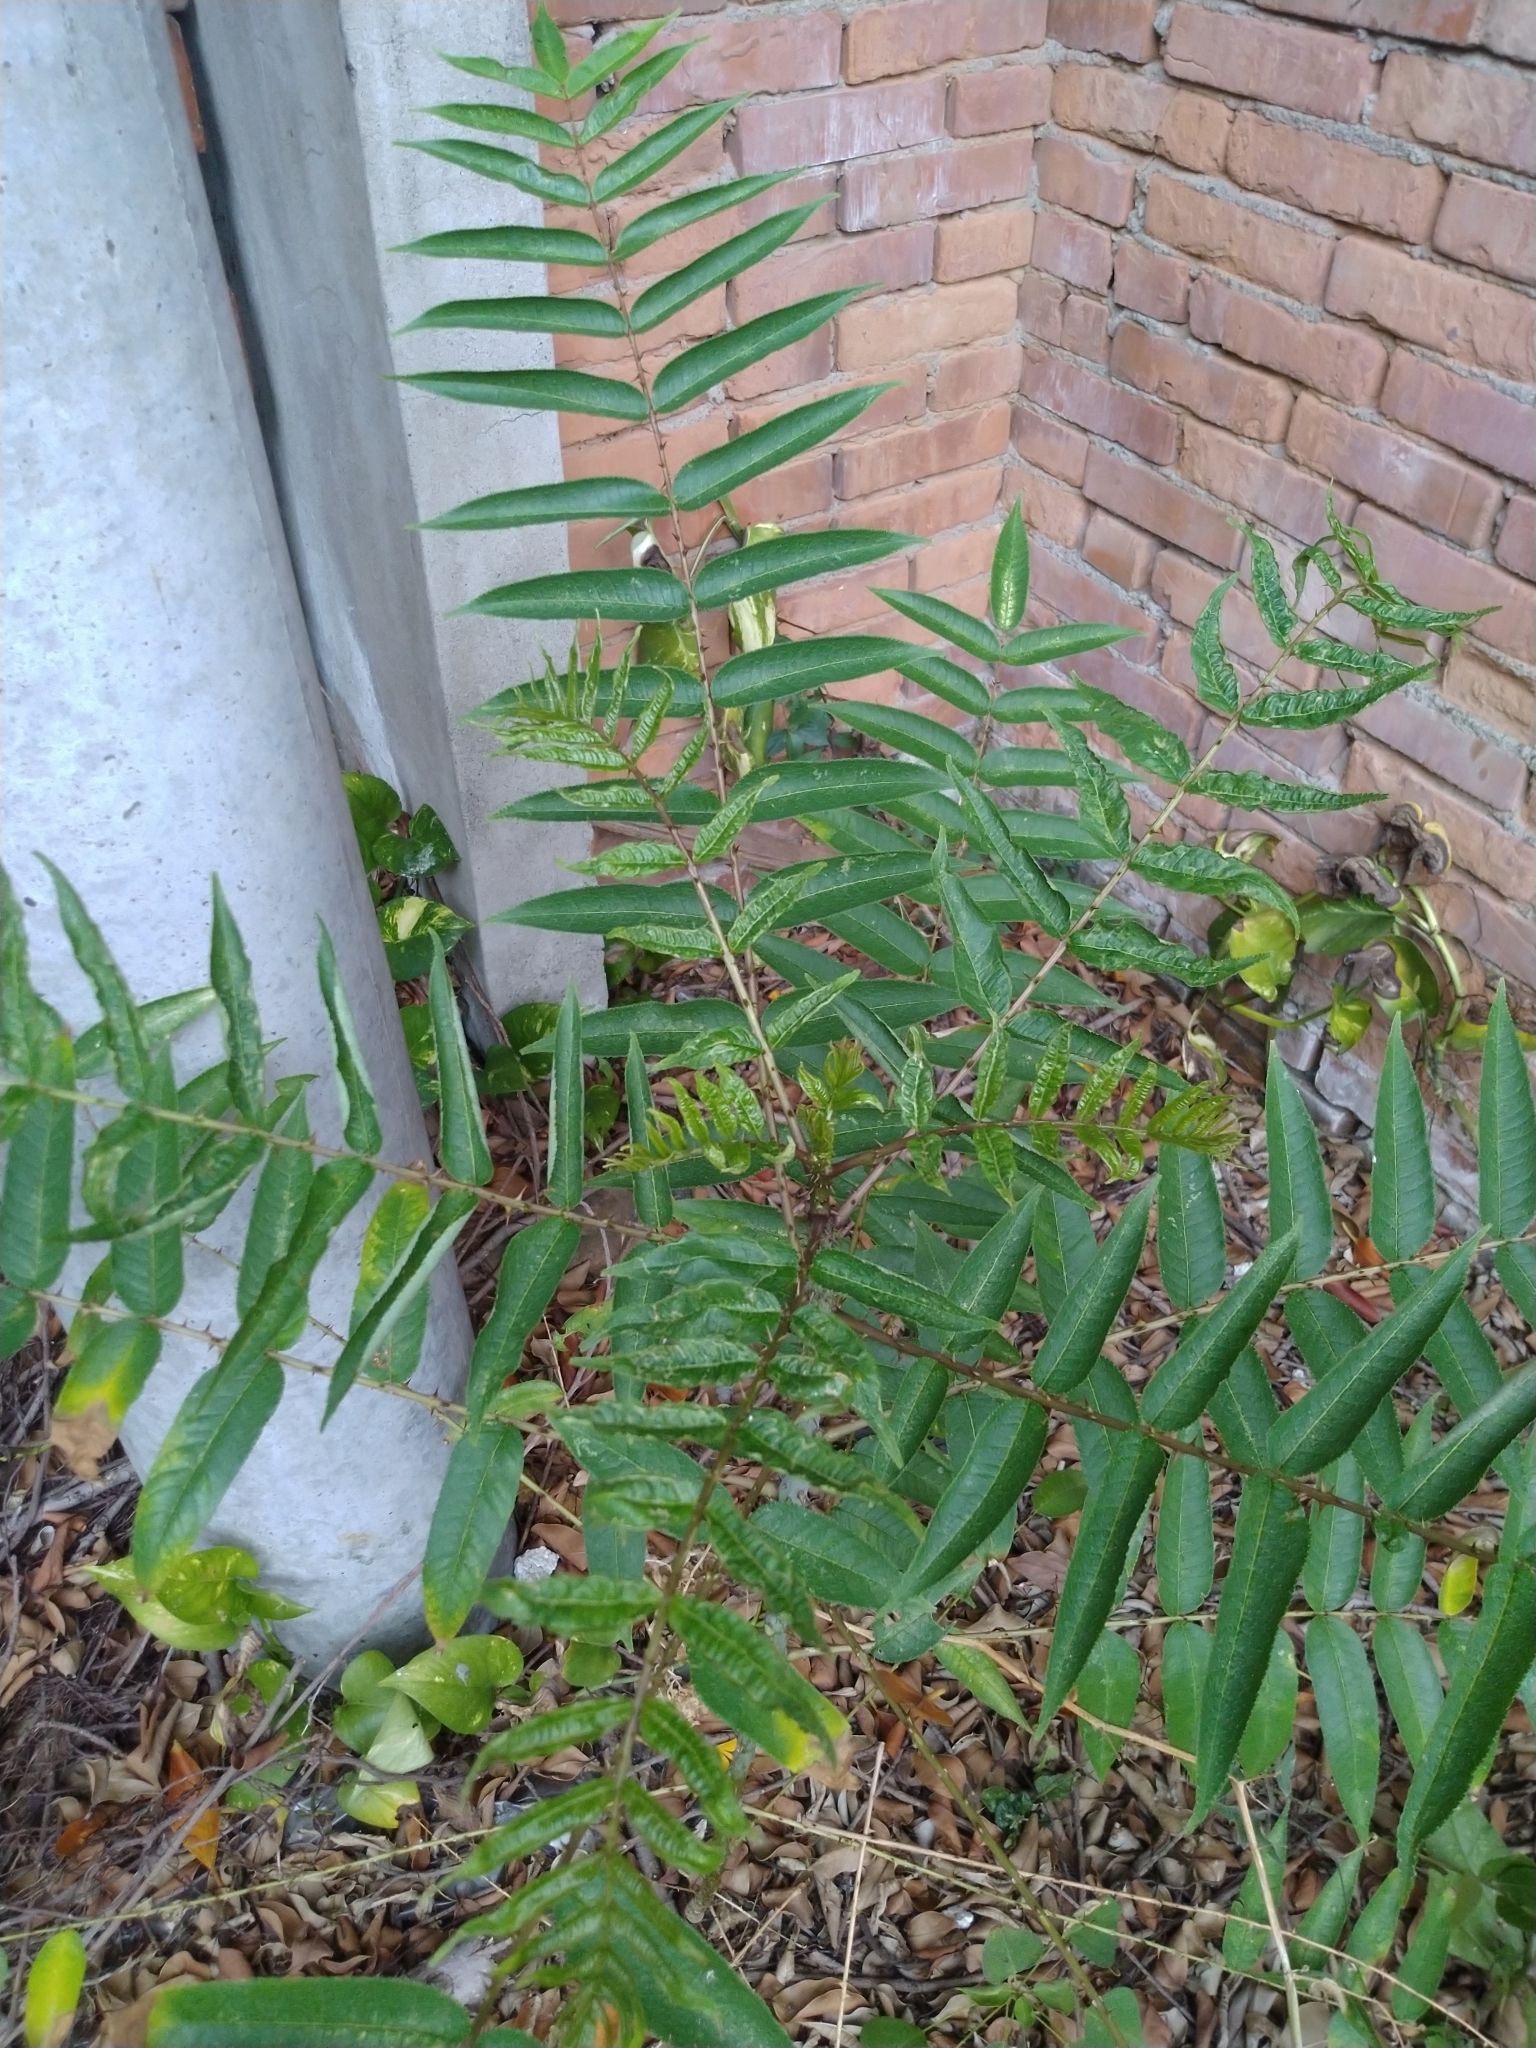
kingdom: Plantae
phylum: Tracheophyta
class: Magnoliopsida
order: Sapindales
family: Rutaceae
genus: Zanthoxylum
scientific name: Zanthoxylum ailanthoides
